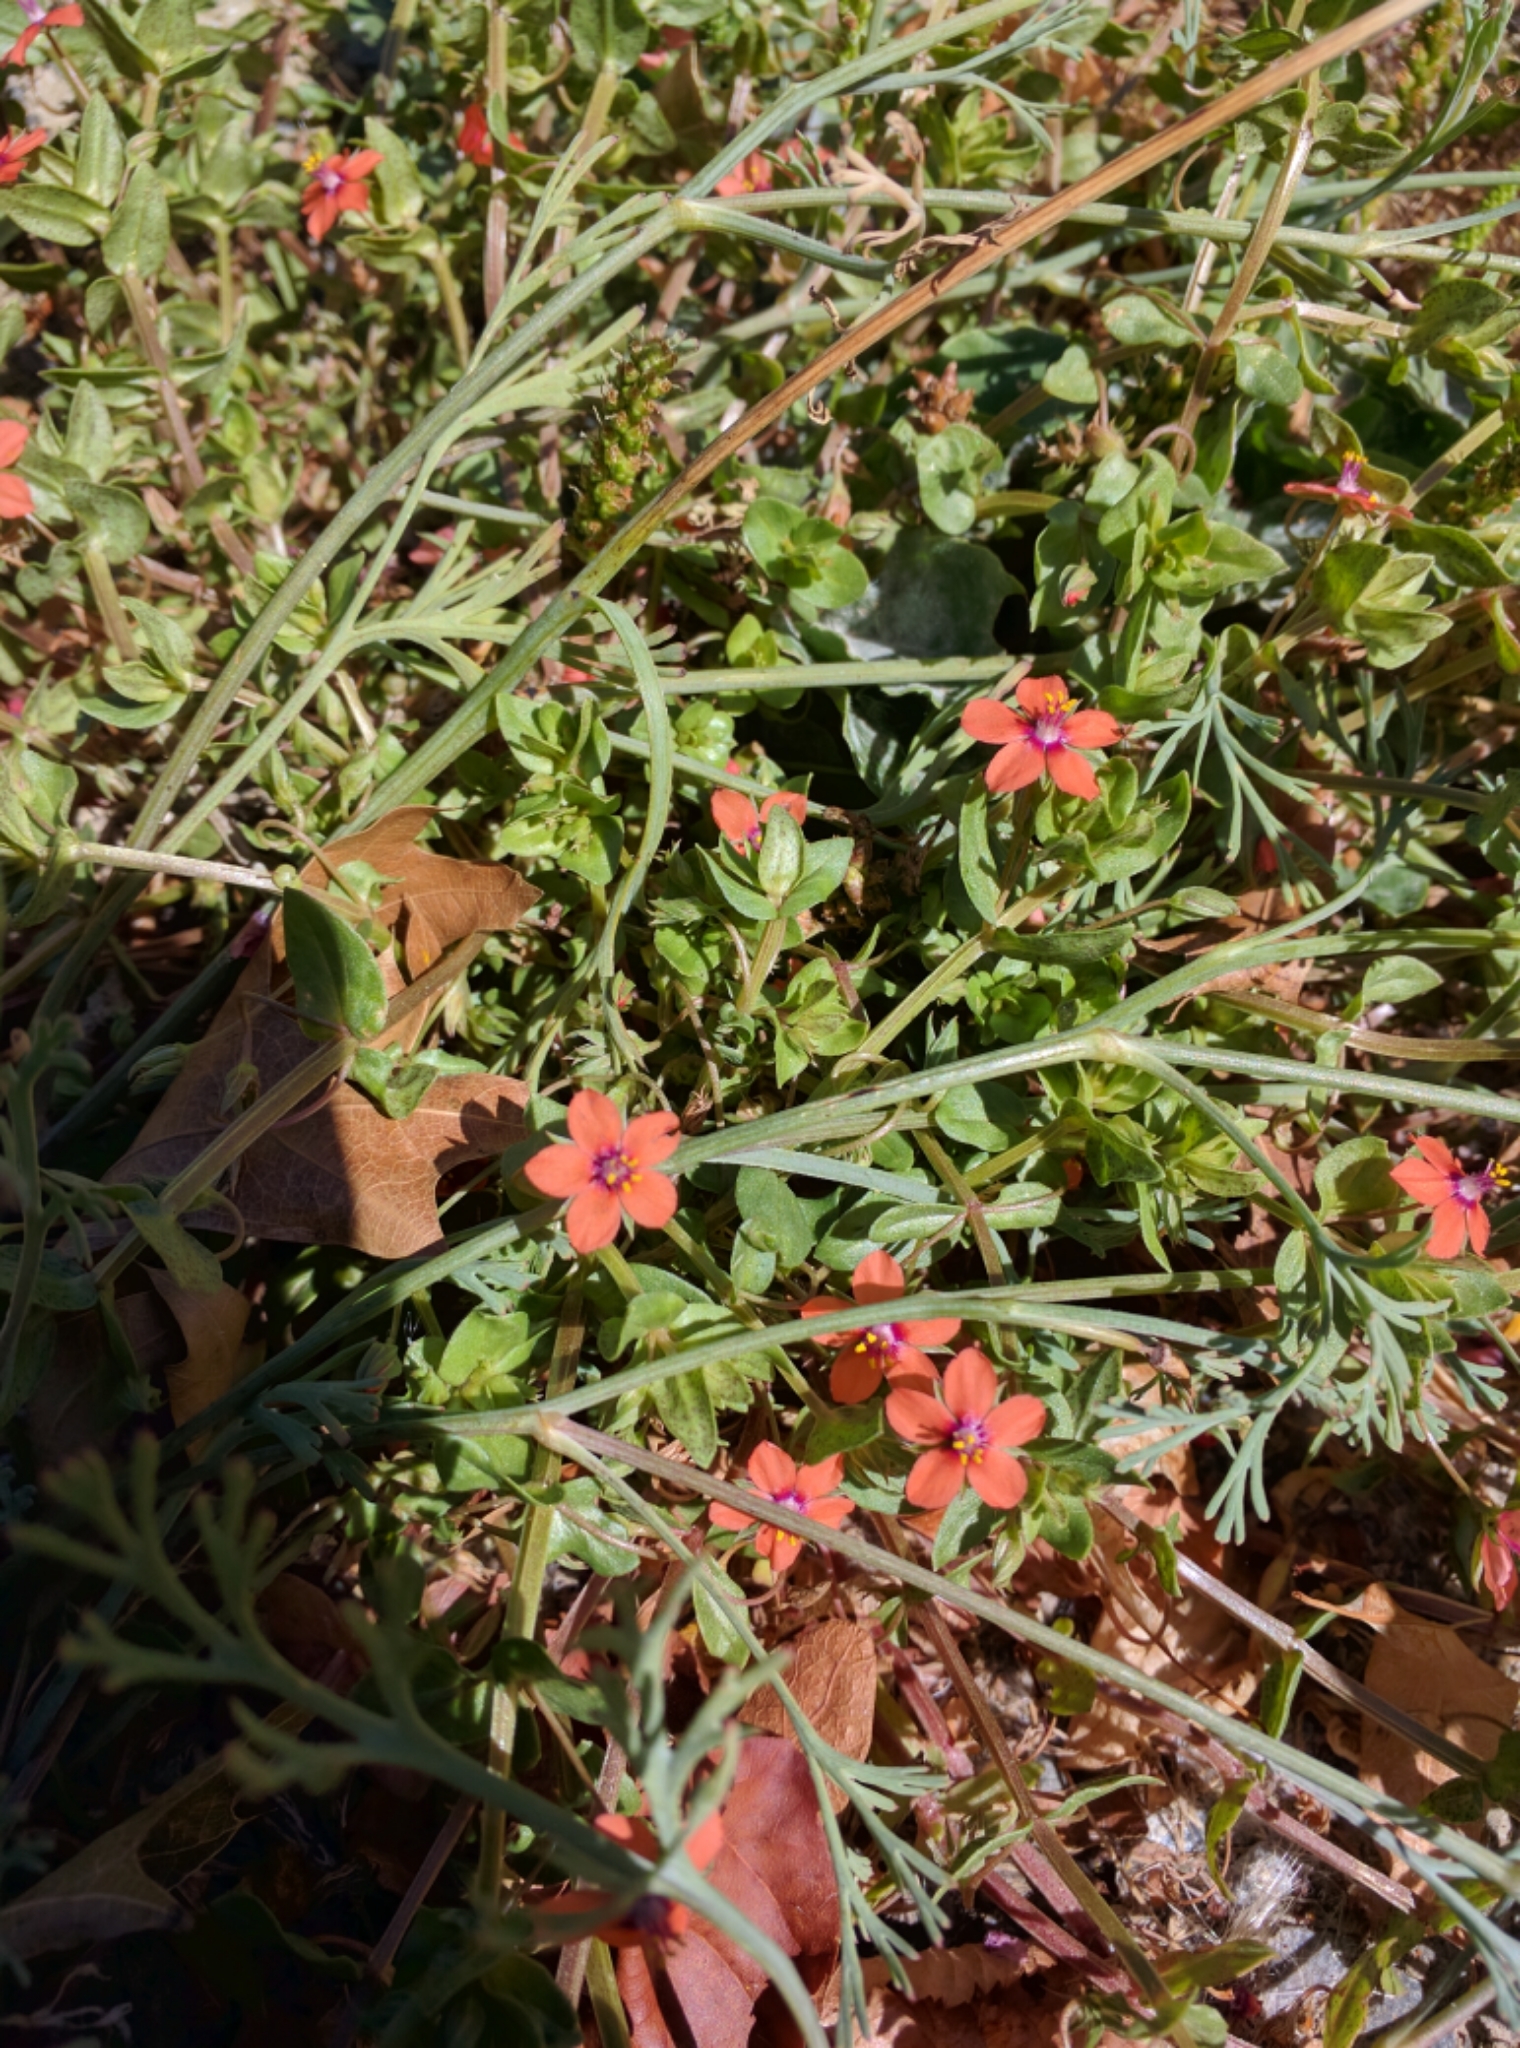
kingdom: Plantae
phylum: Tracheophyta
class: Magnoliopsida
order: Ericales
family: Primulaceae
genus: Lysimachia
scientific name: Lysimachia arvensis
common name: Scarlet pimpernel
